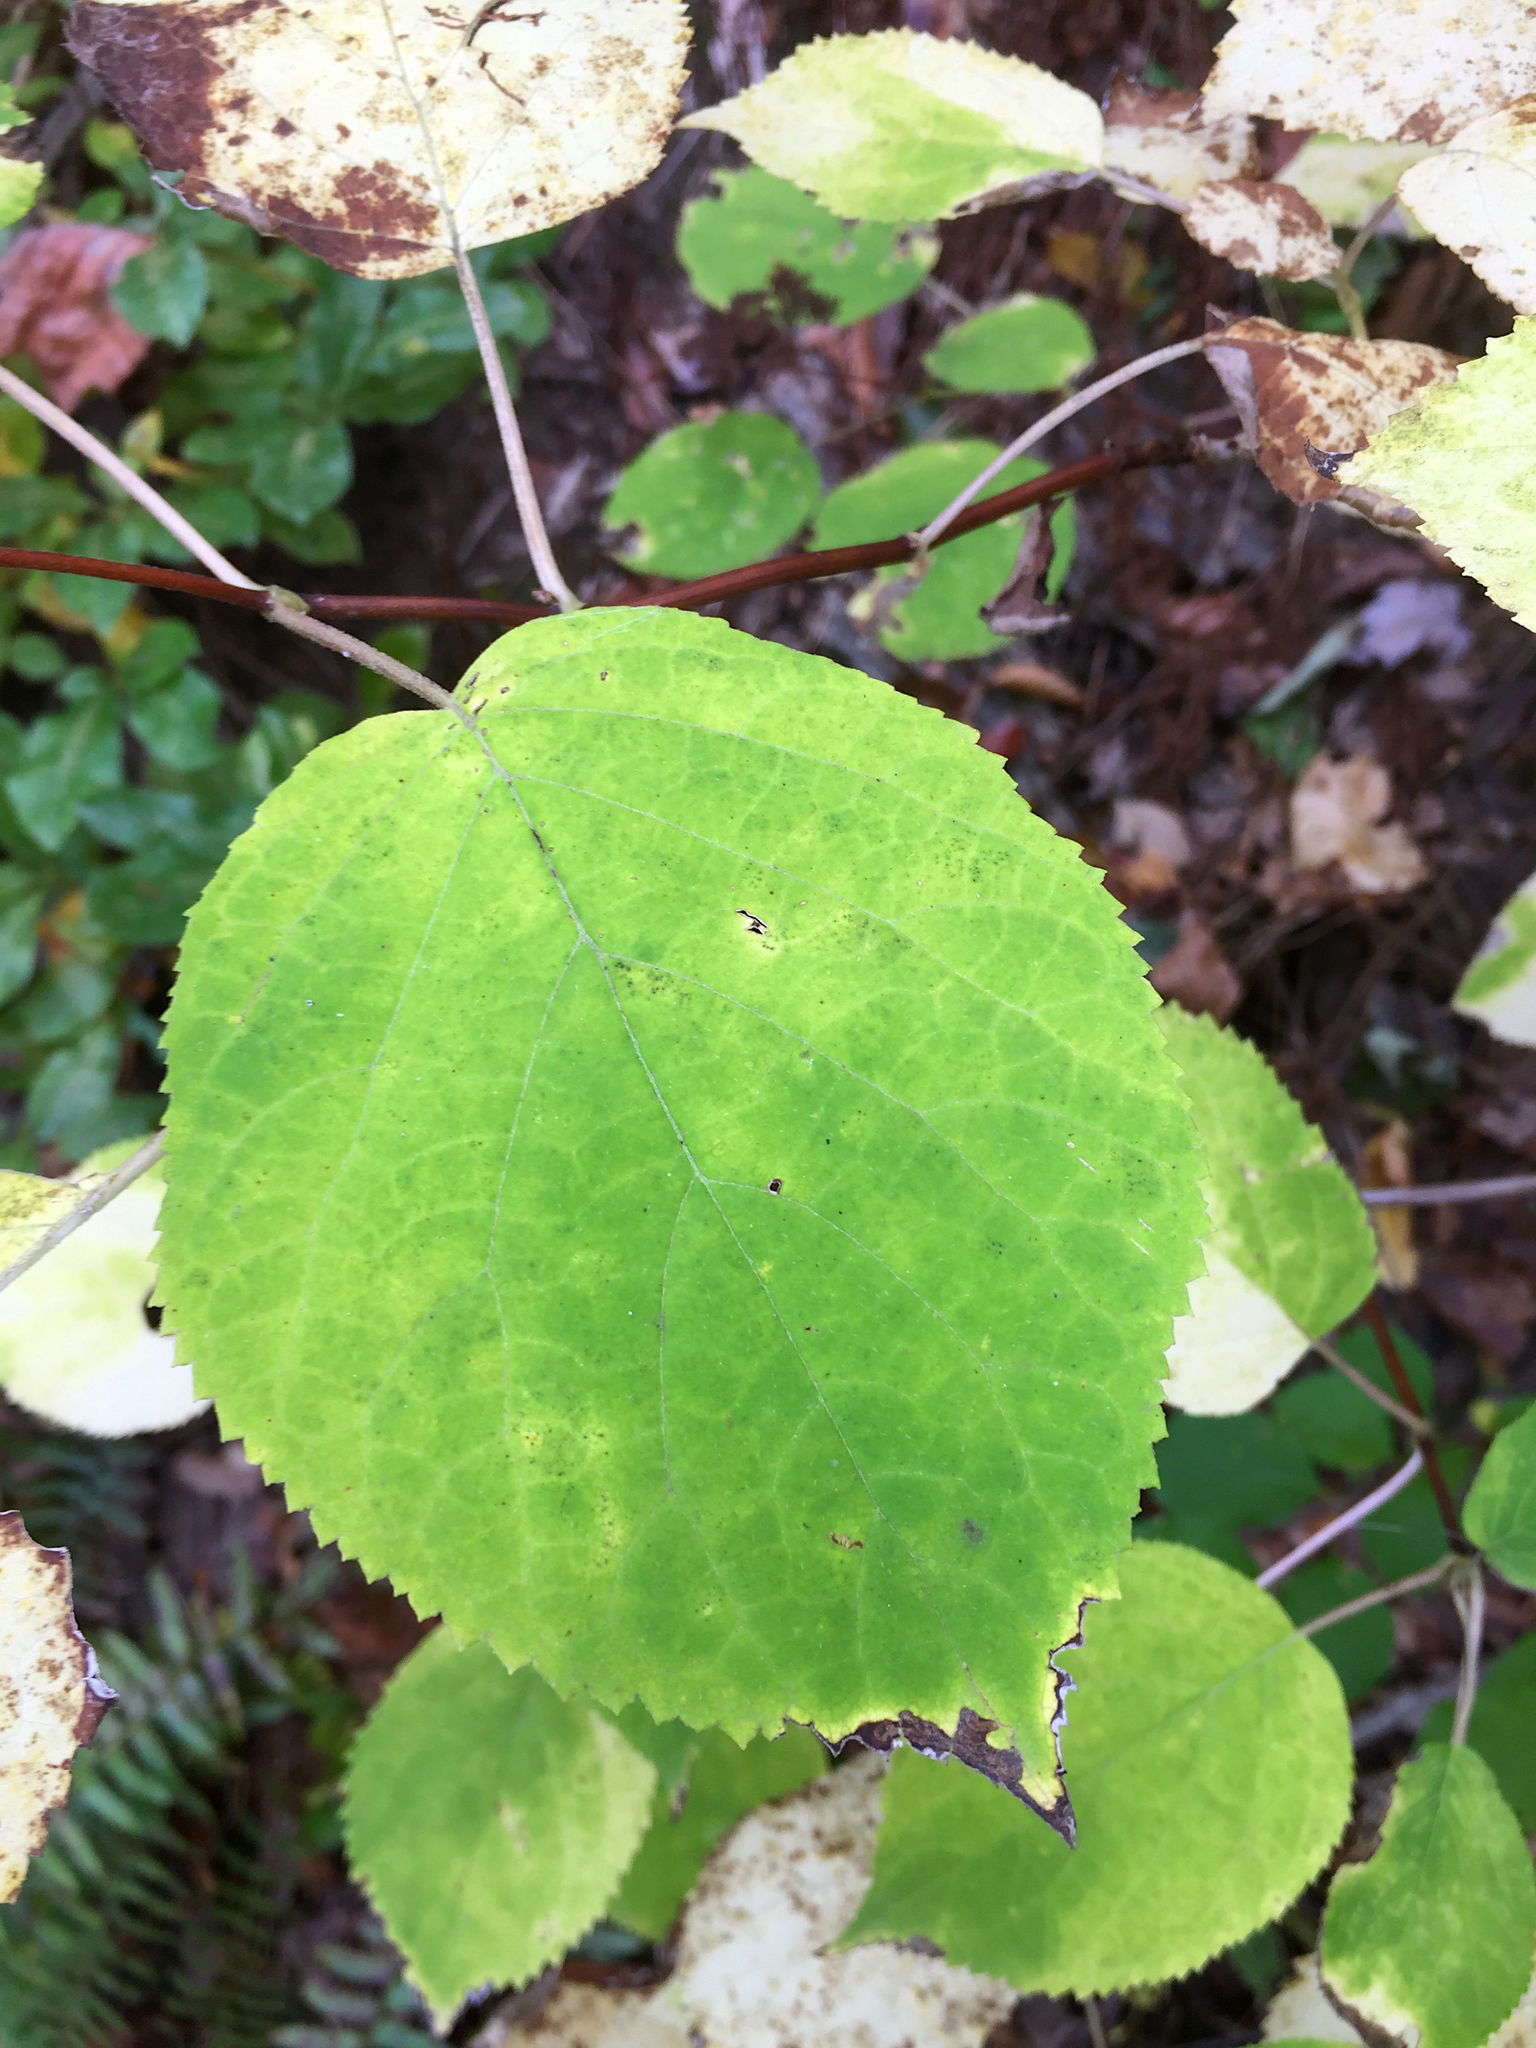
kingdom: Plantae
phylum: Tracheophyta
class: Magnoliopsida
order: Cornales
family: Hydrangeaceae
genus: Hydrangea
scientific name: Hydrangea arborescens
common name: Sevenbark
